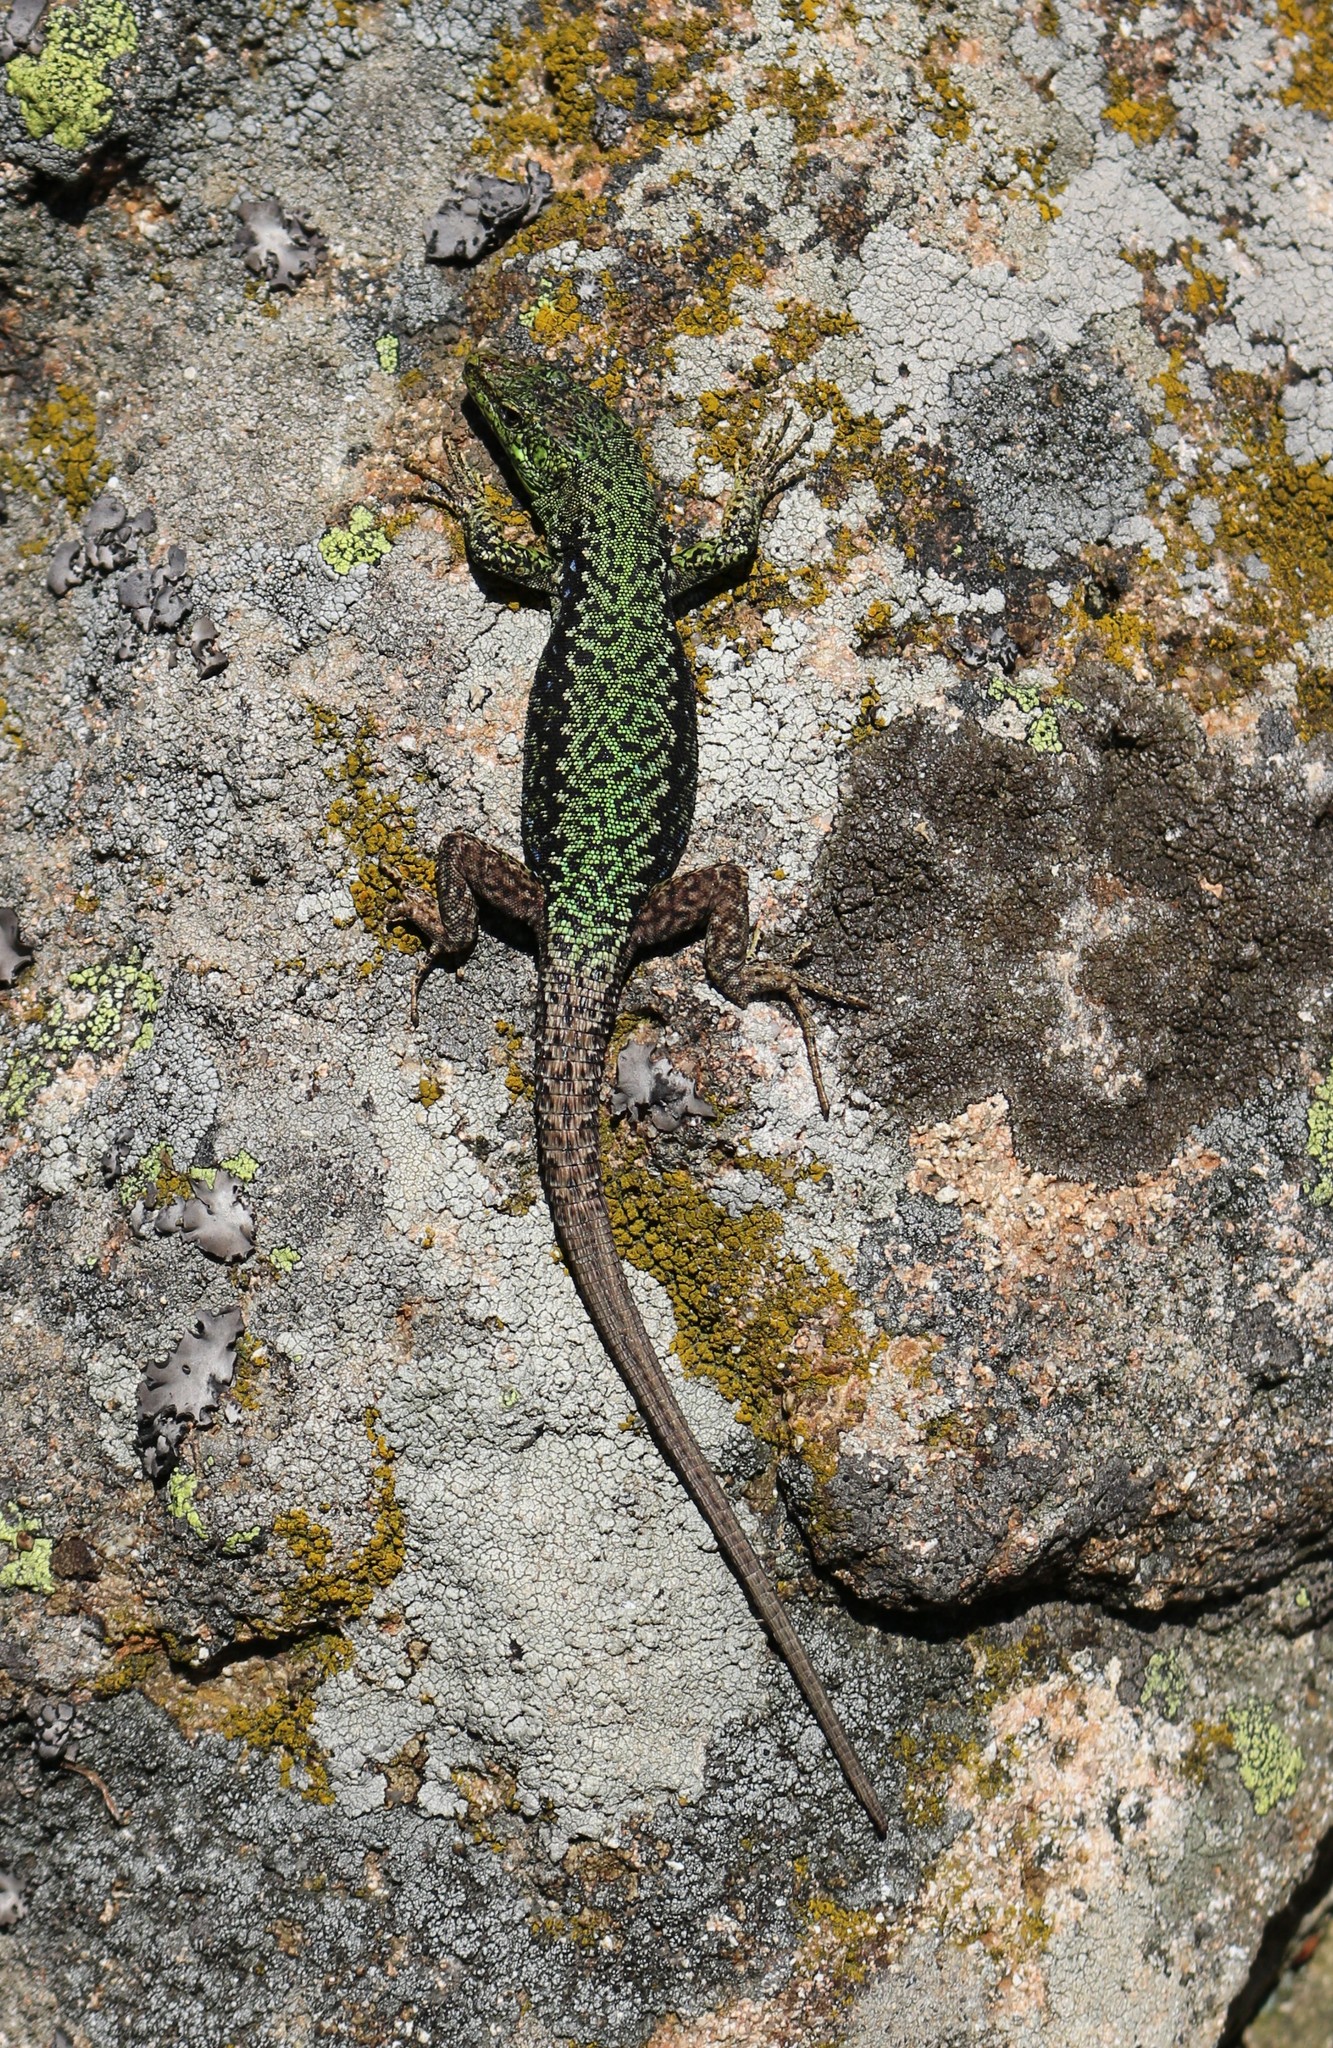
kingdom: Animalia
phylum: Chordata
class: Squamata
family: Lacertidae
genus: Darevskia
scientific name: Darevskia brauneri
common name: Brauner's rock lizard
